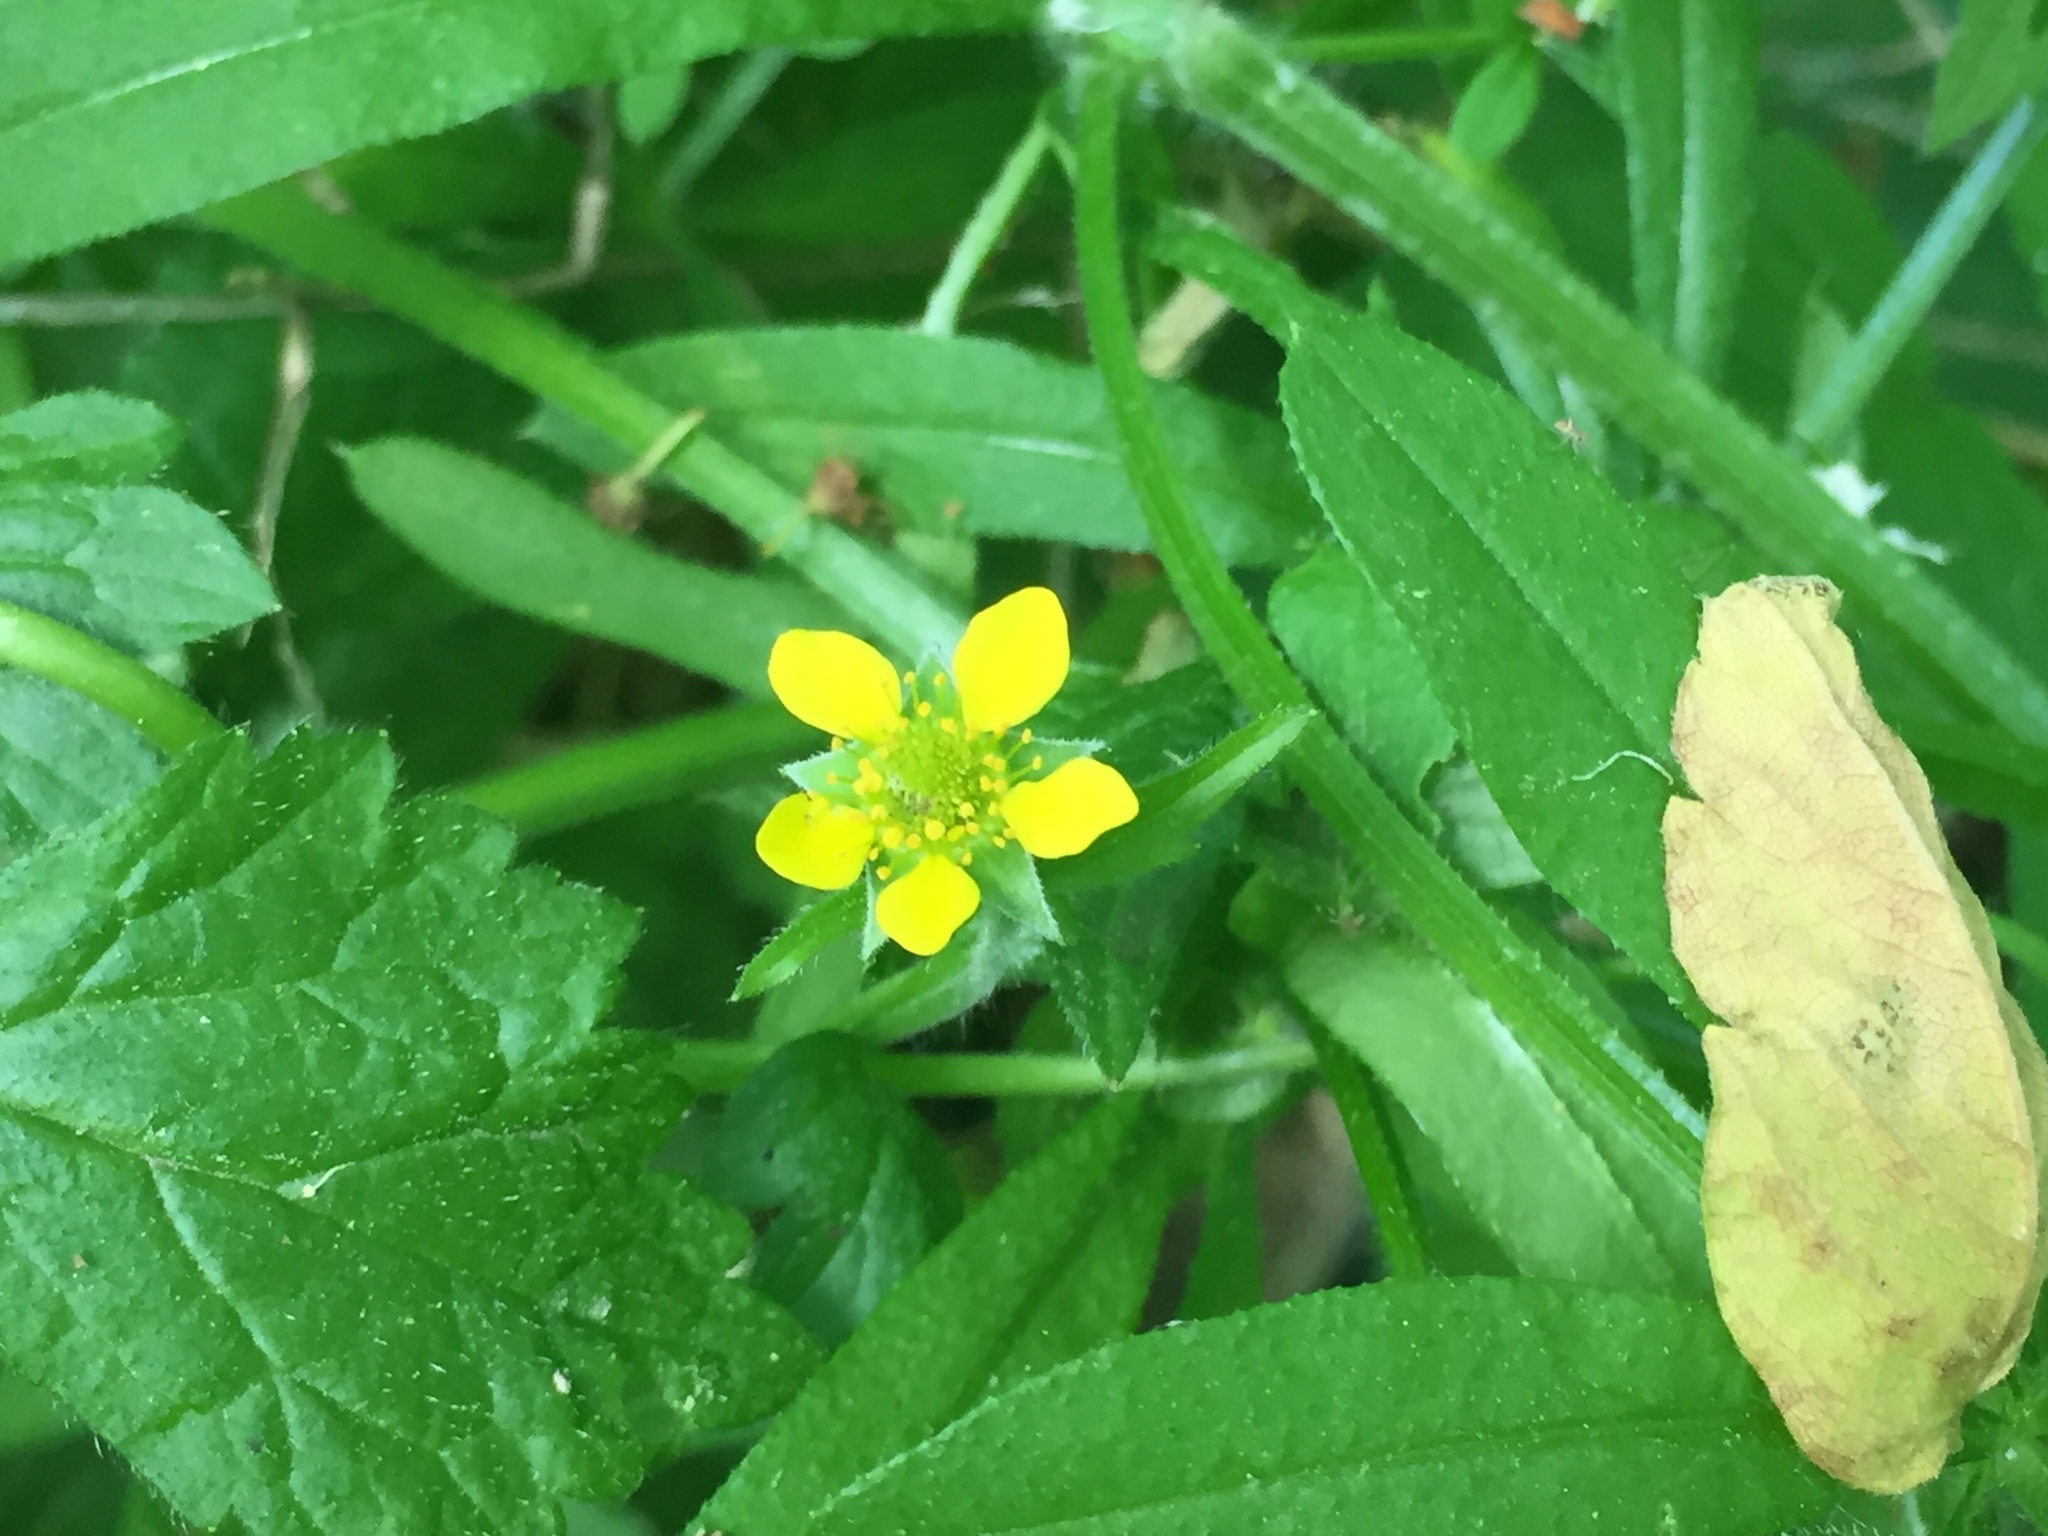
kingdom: Plantae
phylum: Tracheophyta
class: Magnoliopsida
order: Rosales
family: Rosaceae
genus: Geum
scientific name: Geum urbanum
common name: Wood avens
